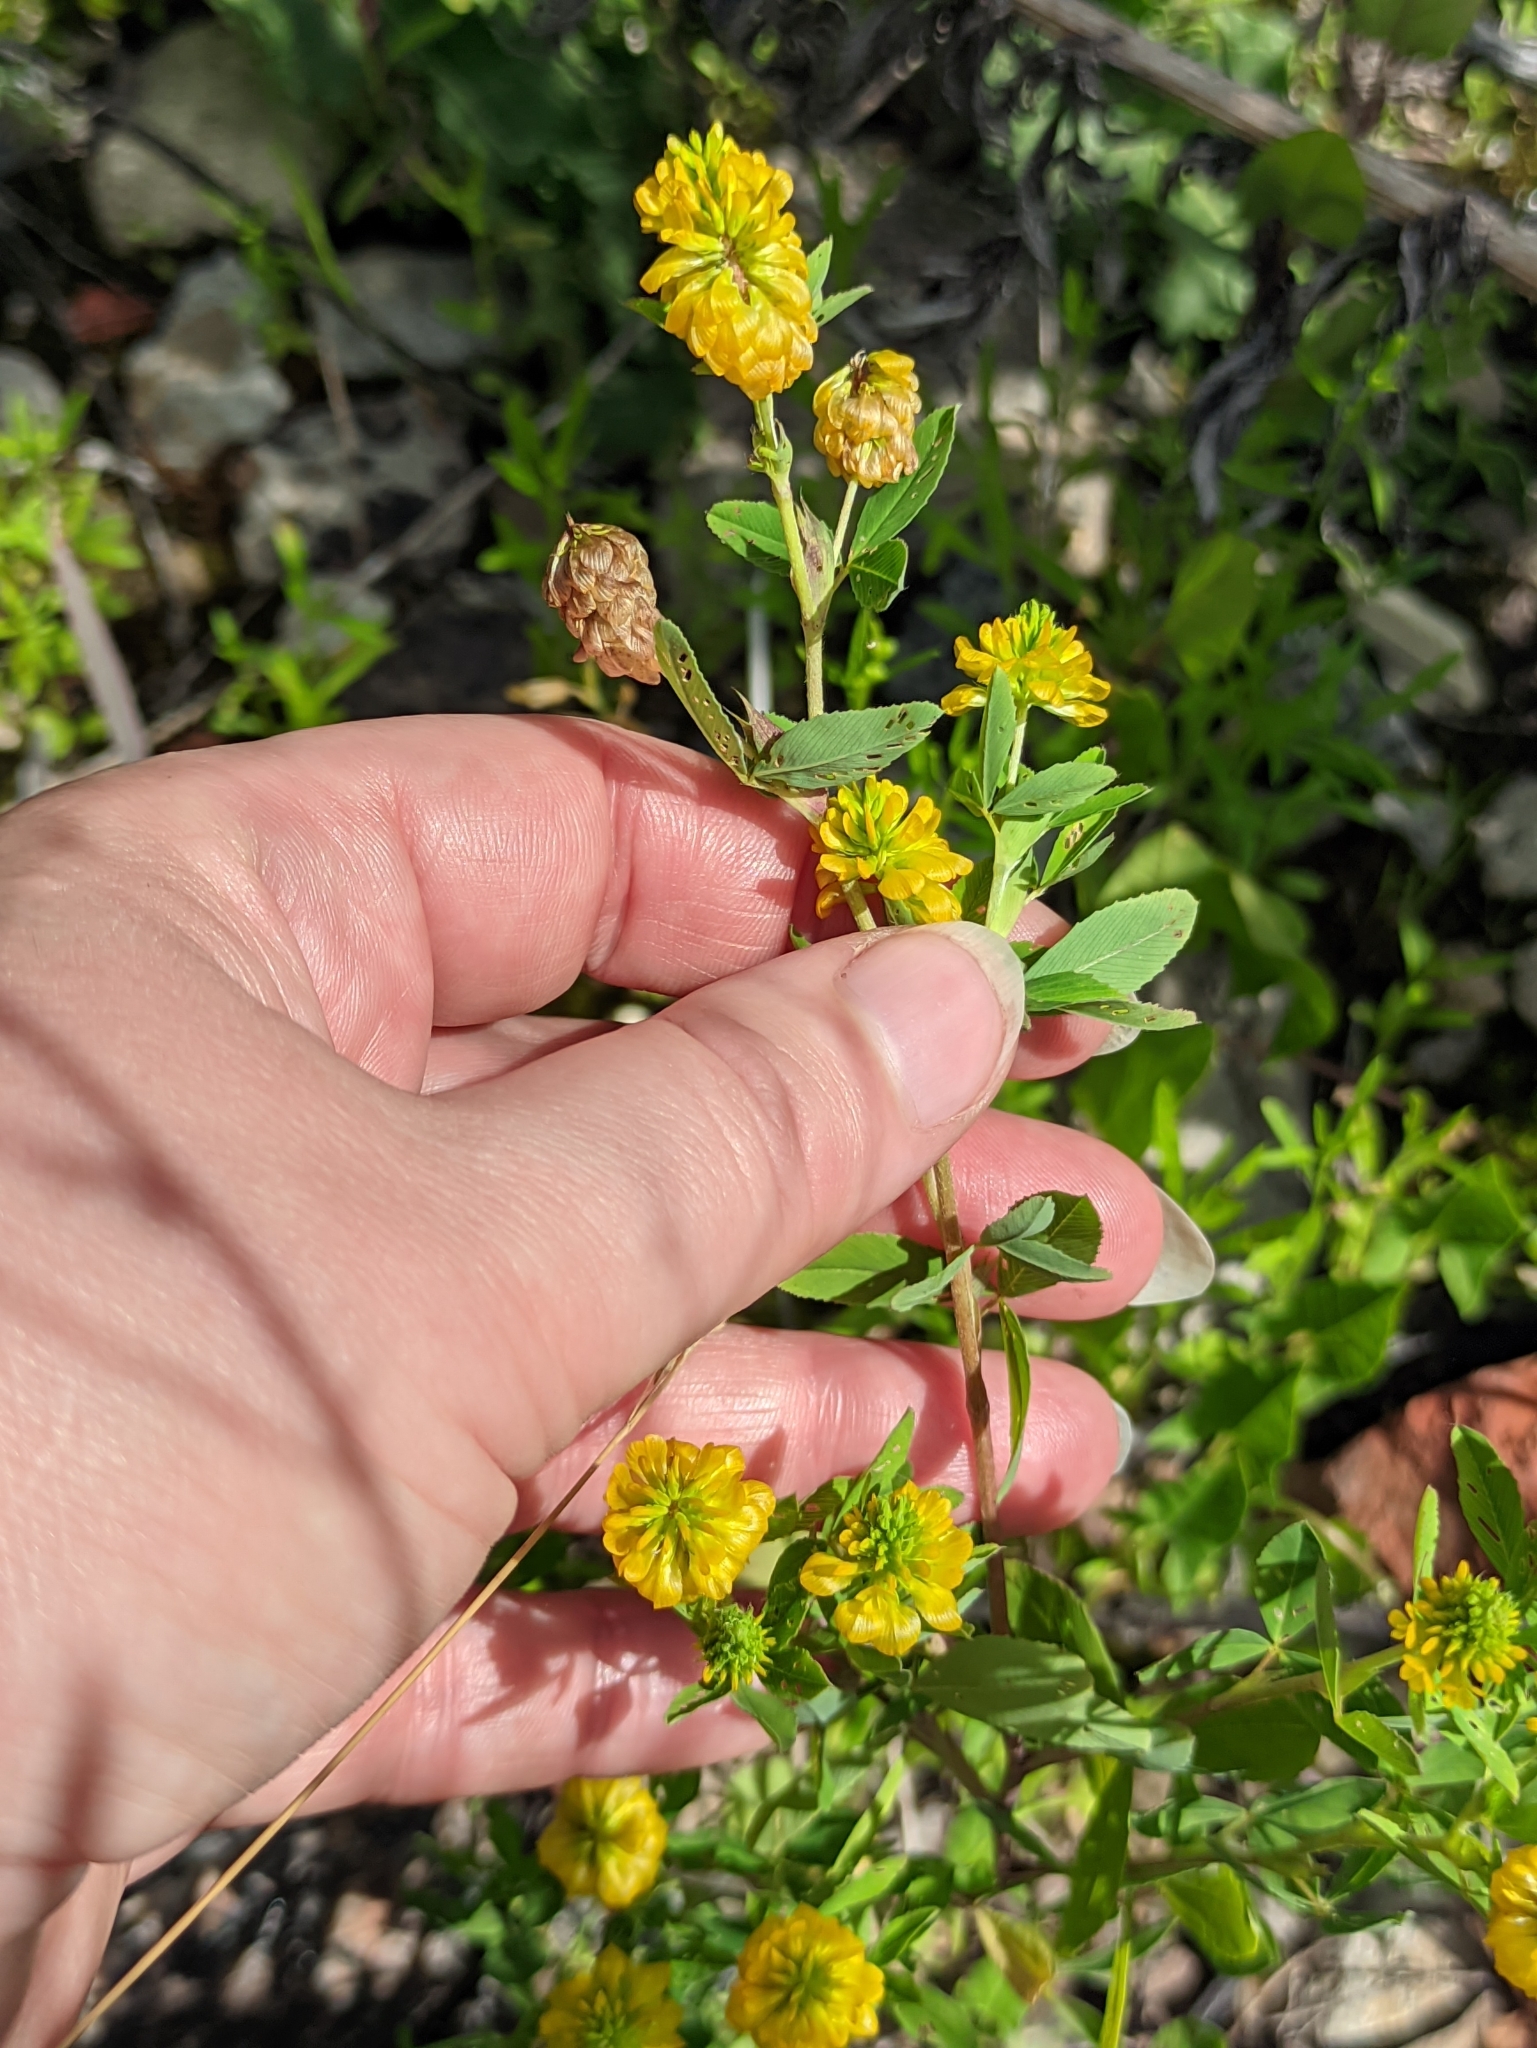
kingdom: Plantae
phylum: Tracheophyta
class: Magnoliopsida
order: Fabales
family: Fabaceae
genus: Trifolium
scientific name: Trifolium aureum
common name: Golden clover
